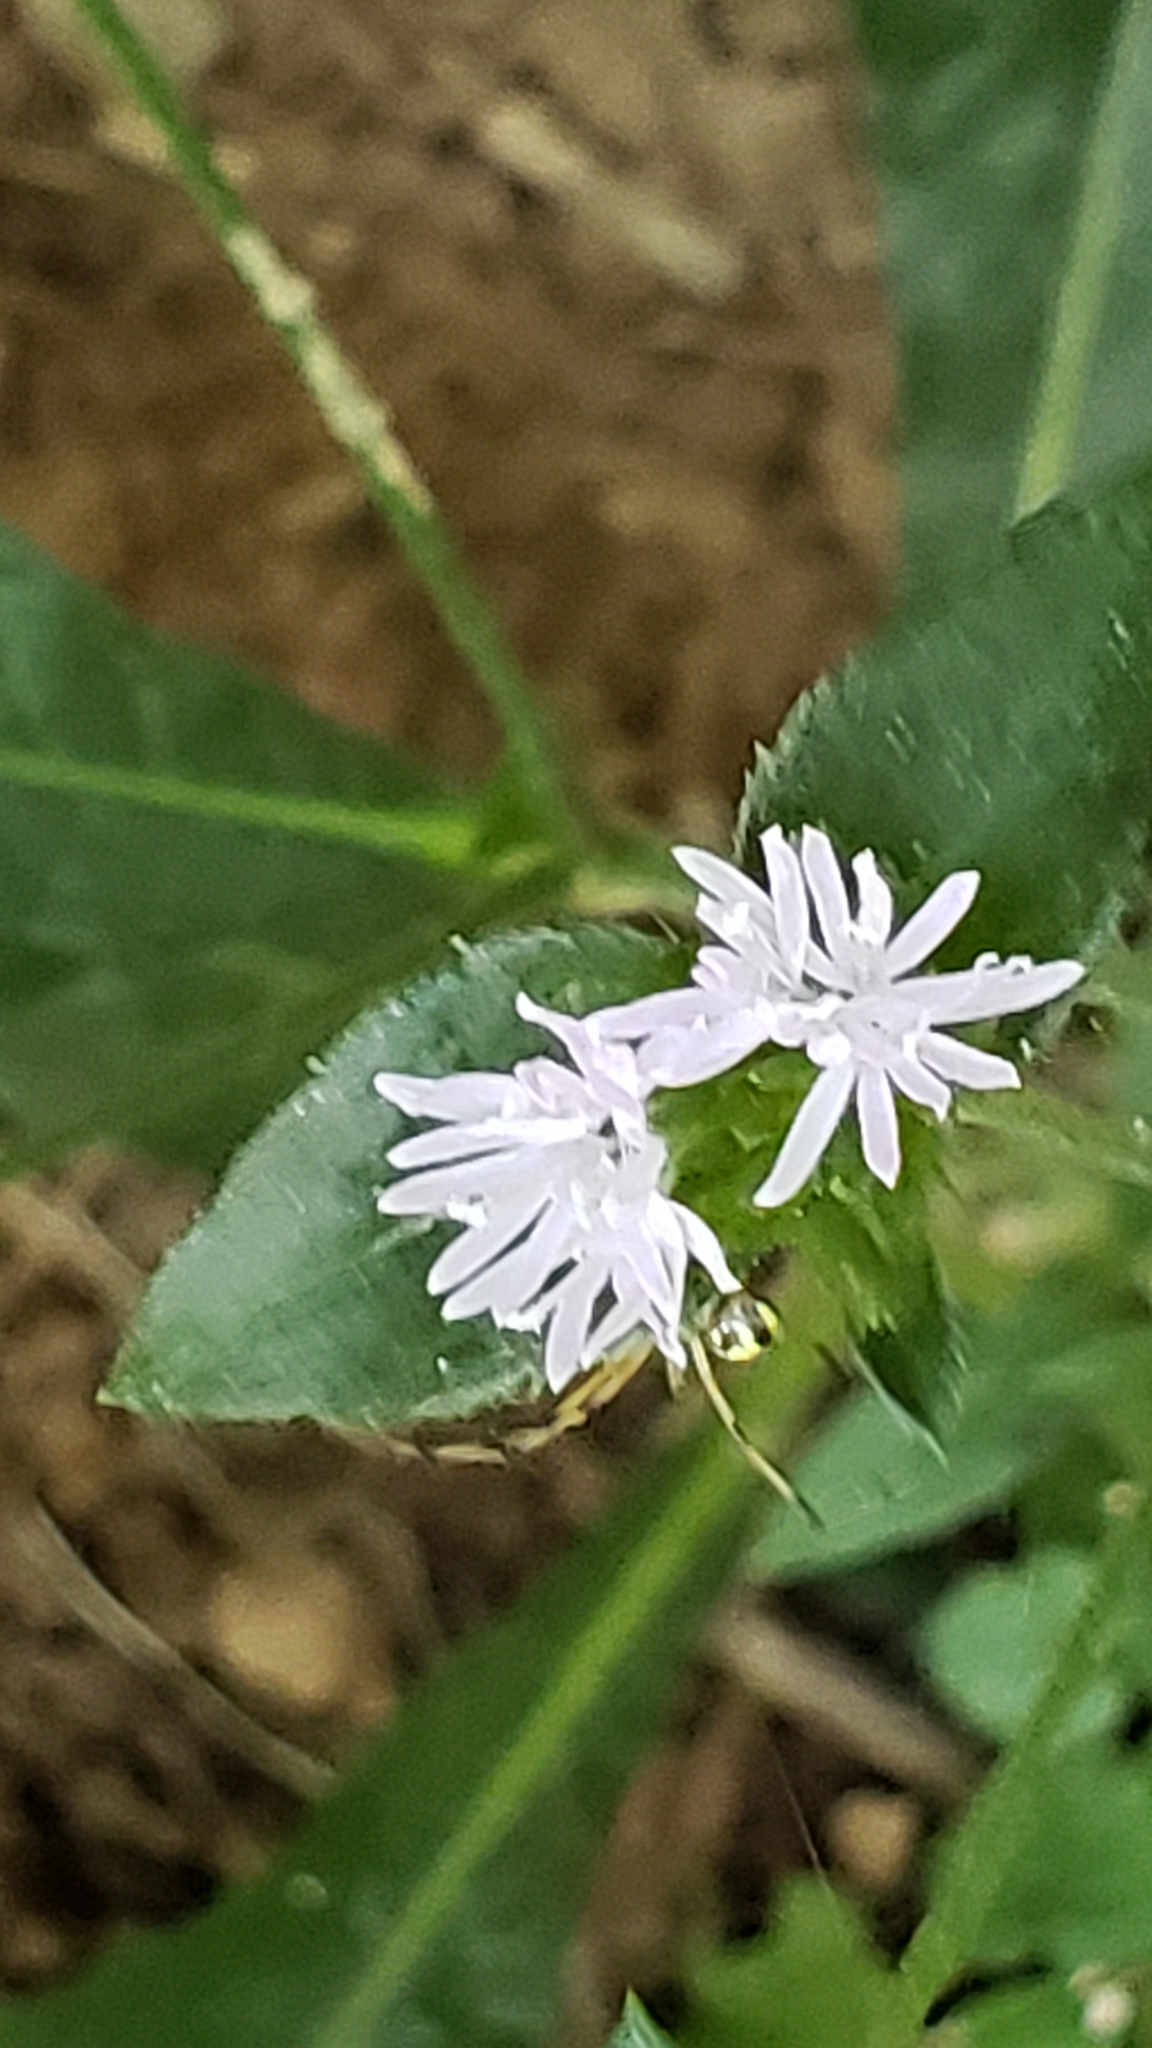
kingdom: Plantae
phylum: Tracheophyta
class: Magnoliopsida
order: Asterales
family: Asteraceae
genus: Elephantopus
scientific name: Elephantopus carolinianus
